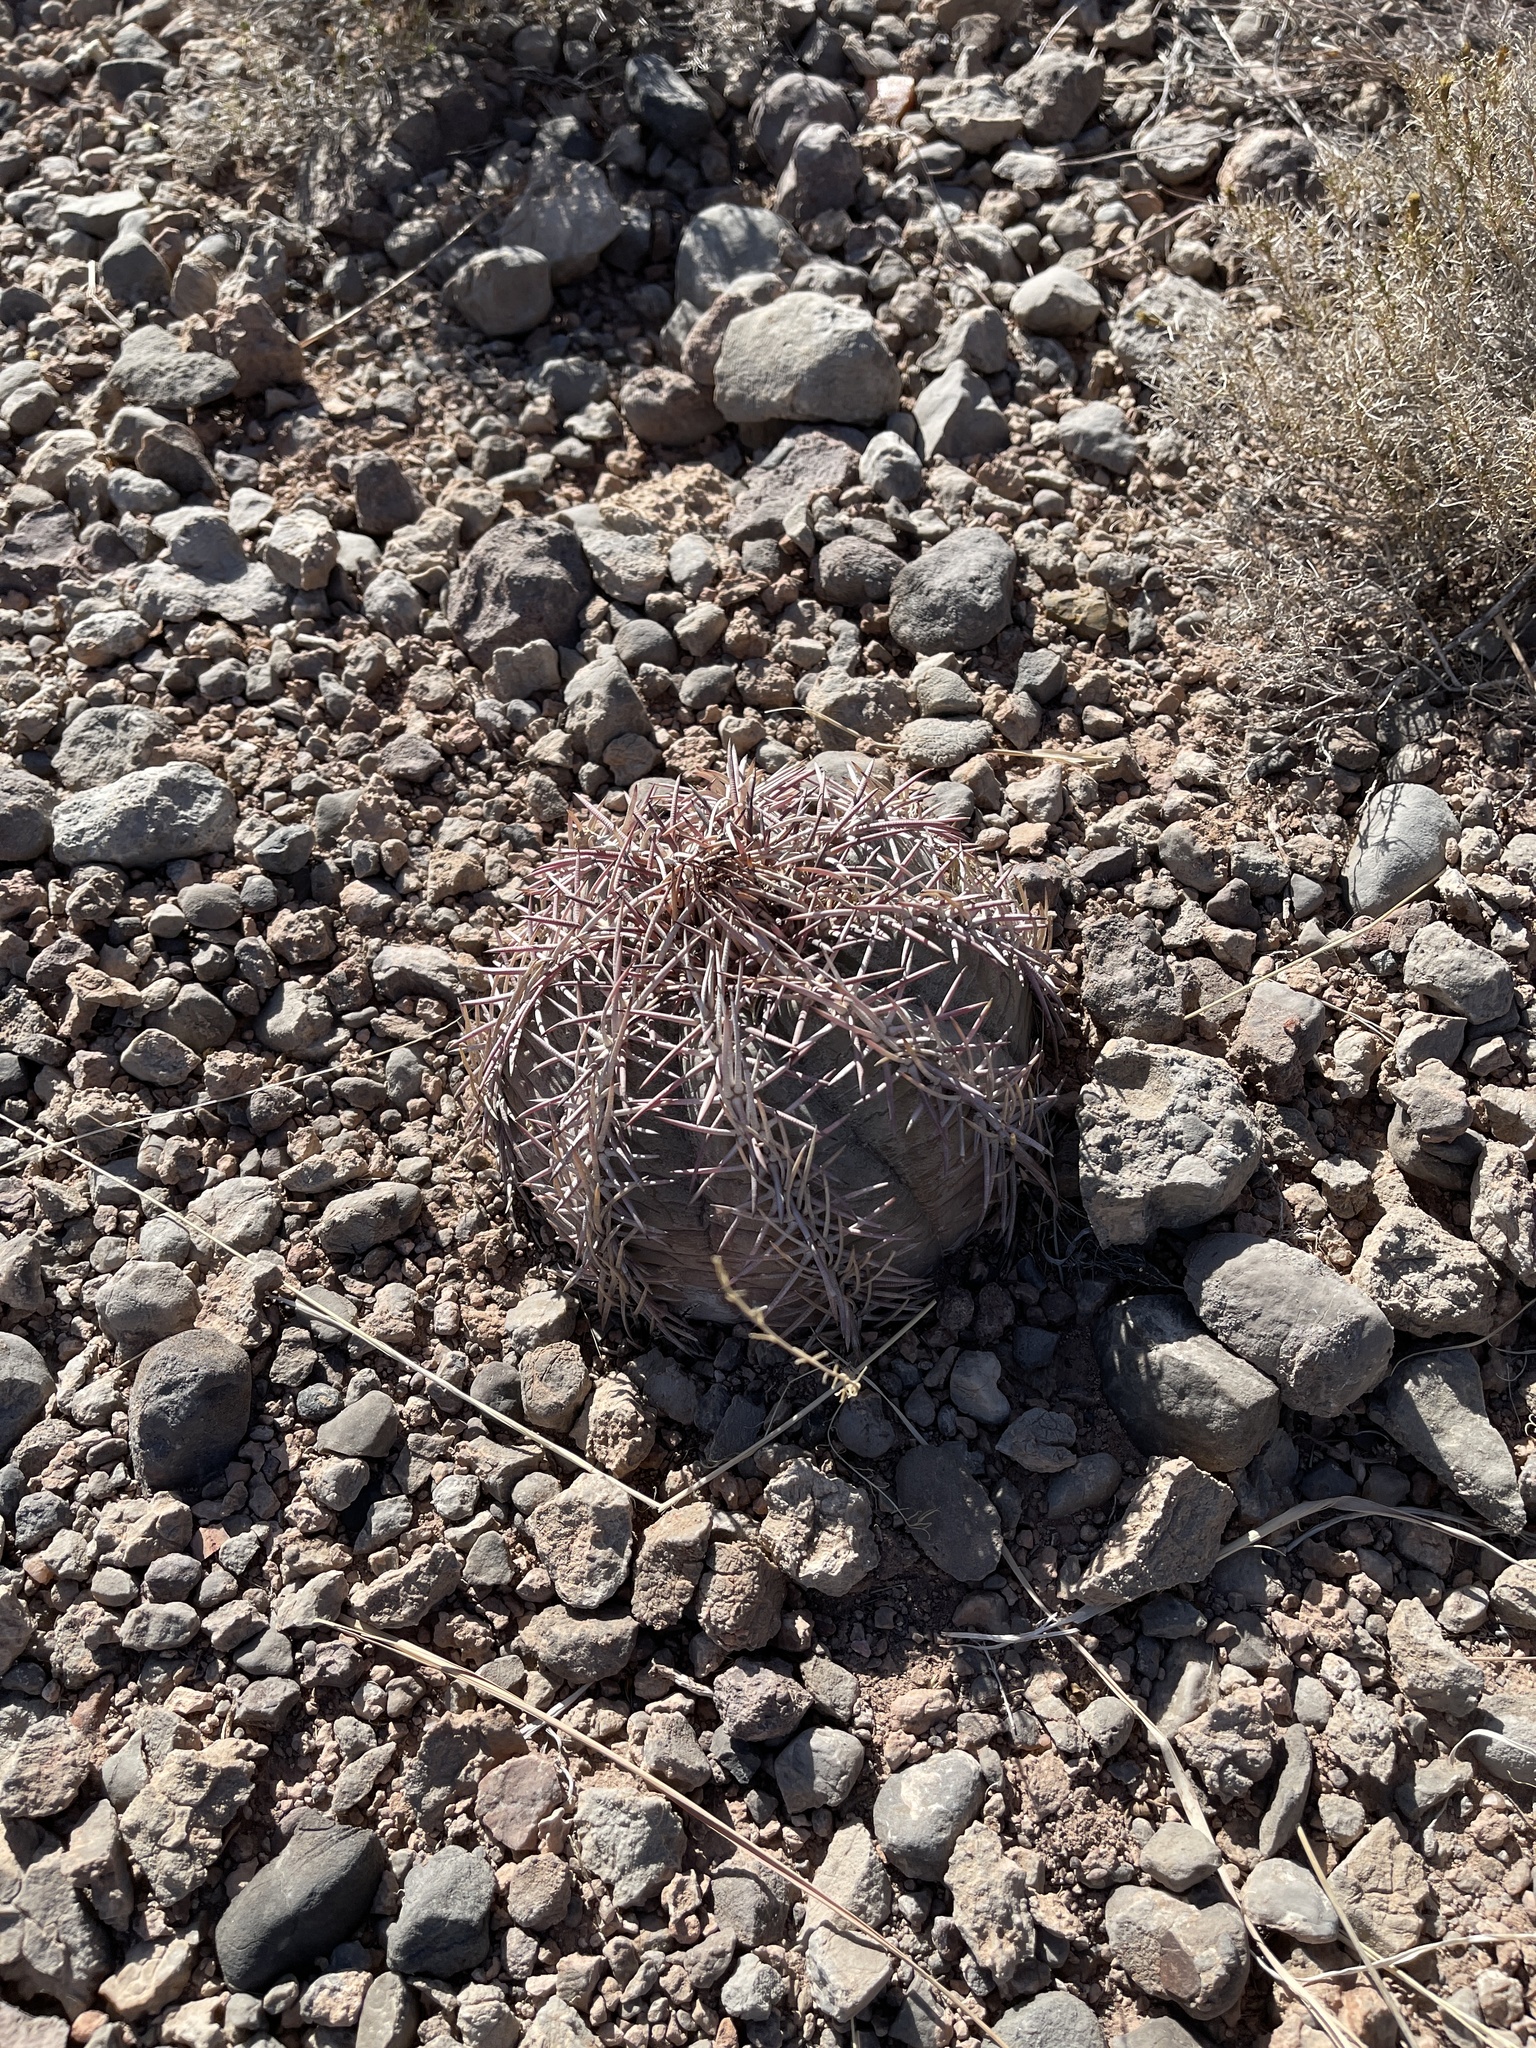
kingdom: Plantae
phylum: Tracheophyta
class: Magnoliopsida
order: Caryophyllales
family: Cactaceae
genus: Echinocactus
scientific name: Echinocactus horizonthalonius
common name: Devilshead
